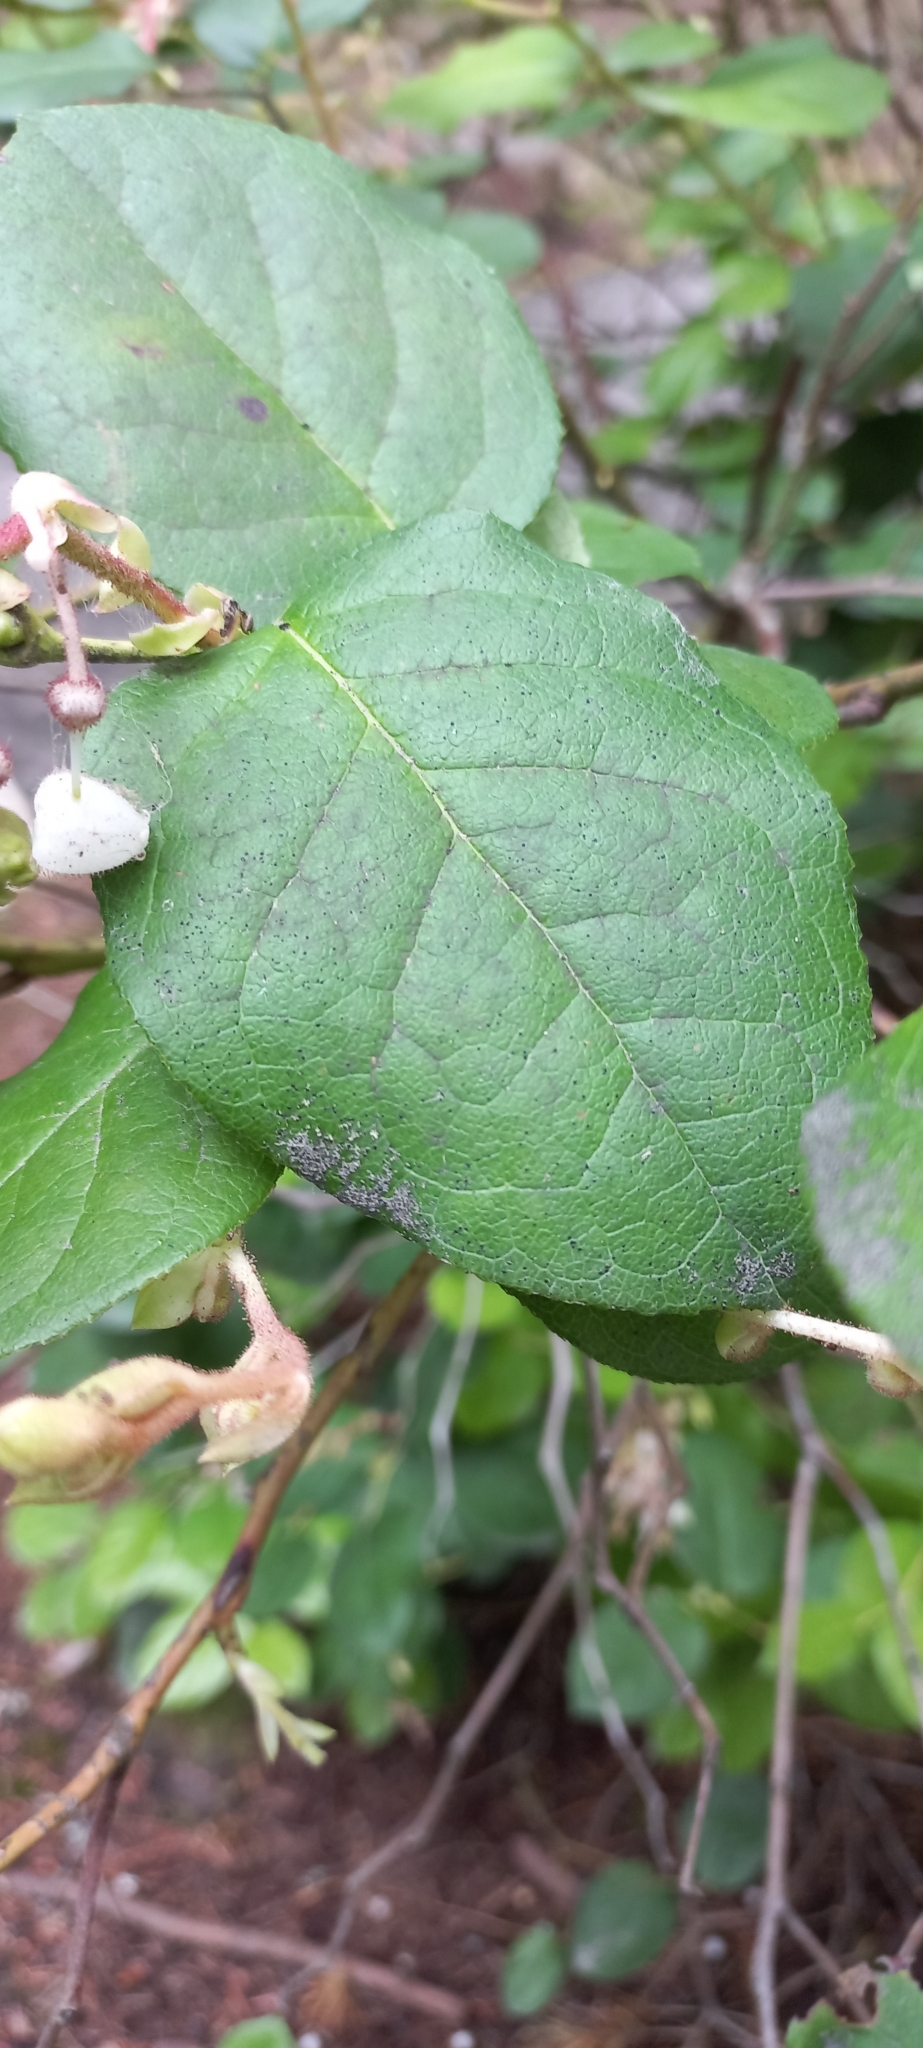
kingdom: Plantae
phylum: Tracheophyta
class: Magnoliopsida
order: Ericales
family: Ericaceae
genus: Gaultheria
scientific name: Gaultheria shallon
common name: Shallon
